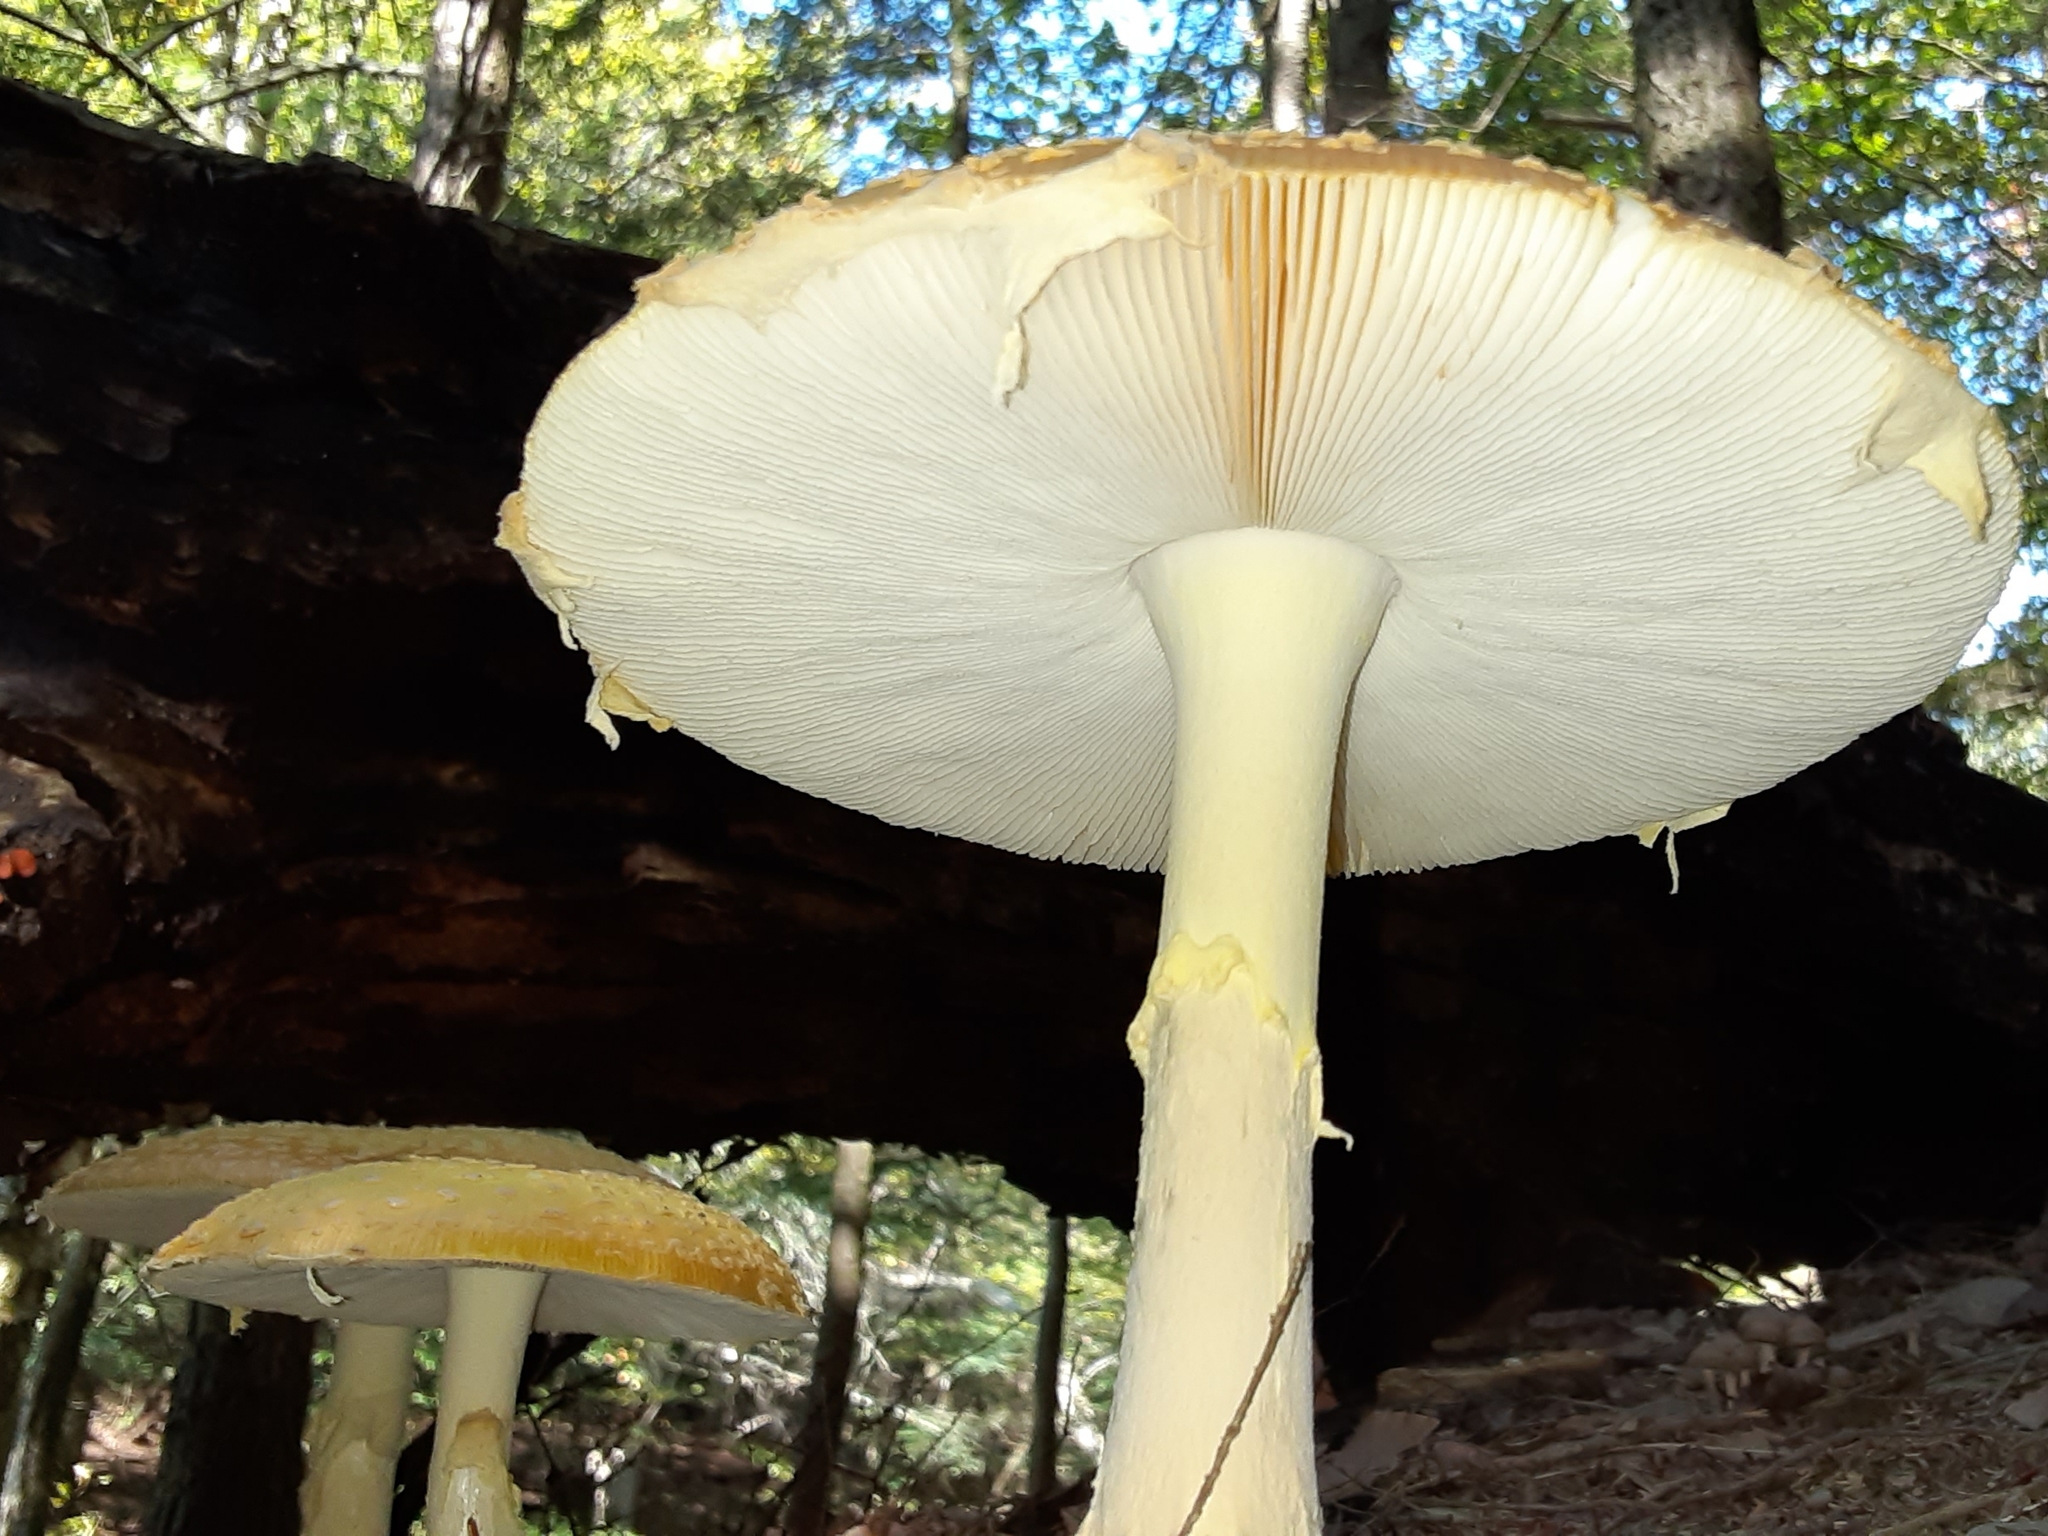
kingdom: Fungi
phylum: Basidiomycota
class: Agaricomycetes
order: Agaricales
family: Amanitaceae
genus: Amanita
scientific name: Amanita muscaria
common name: Fly agaric
